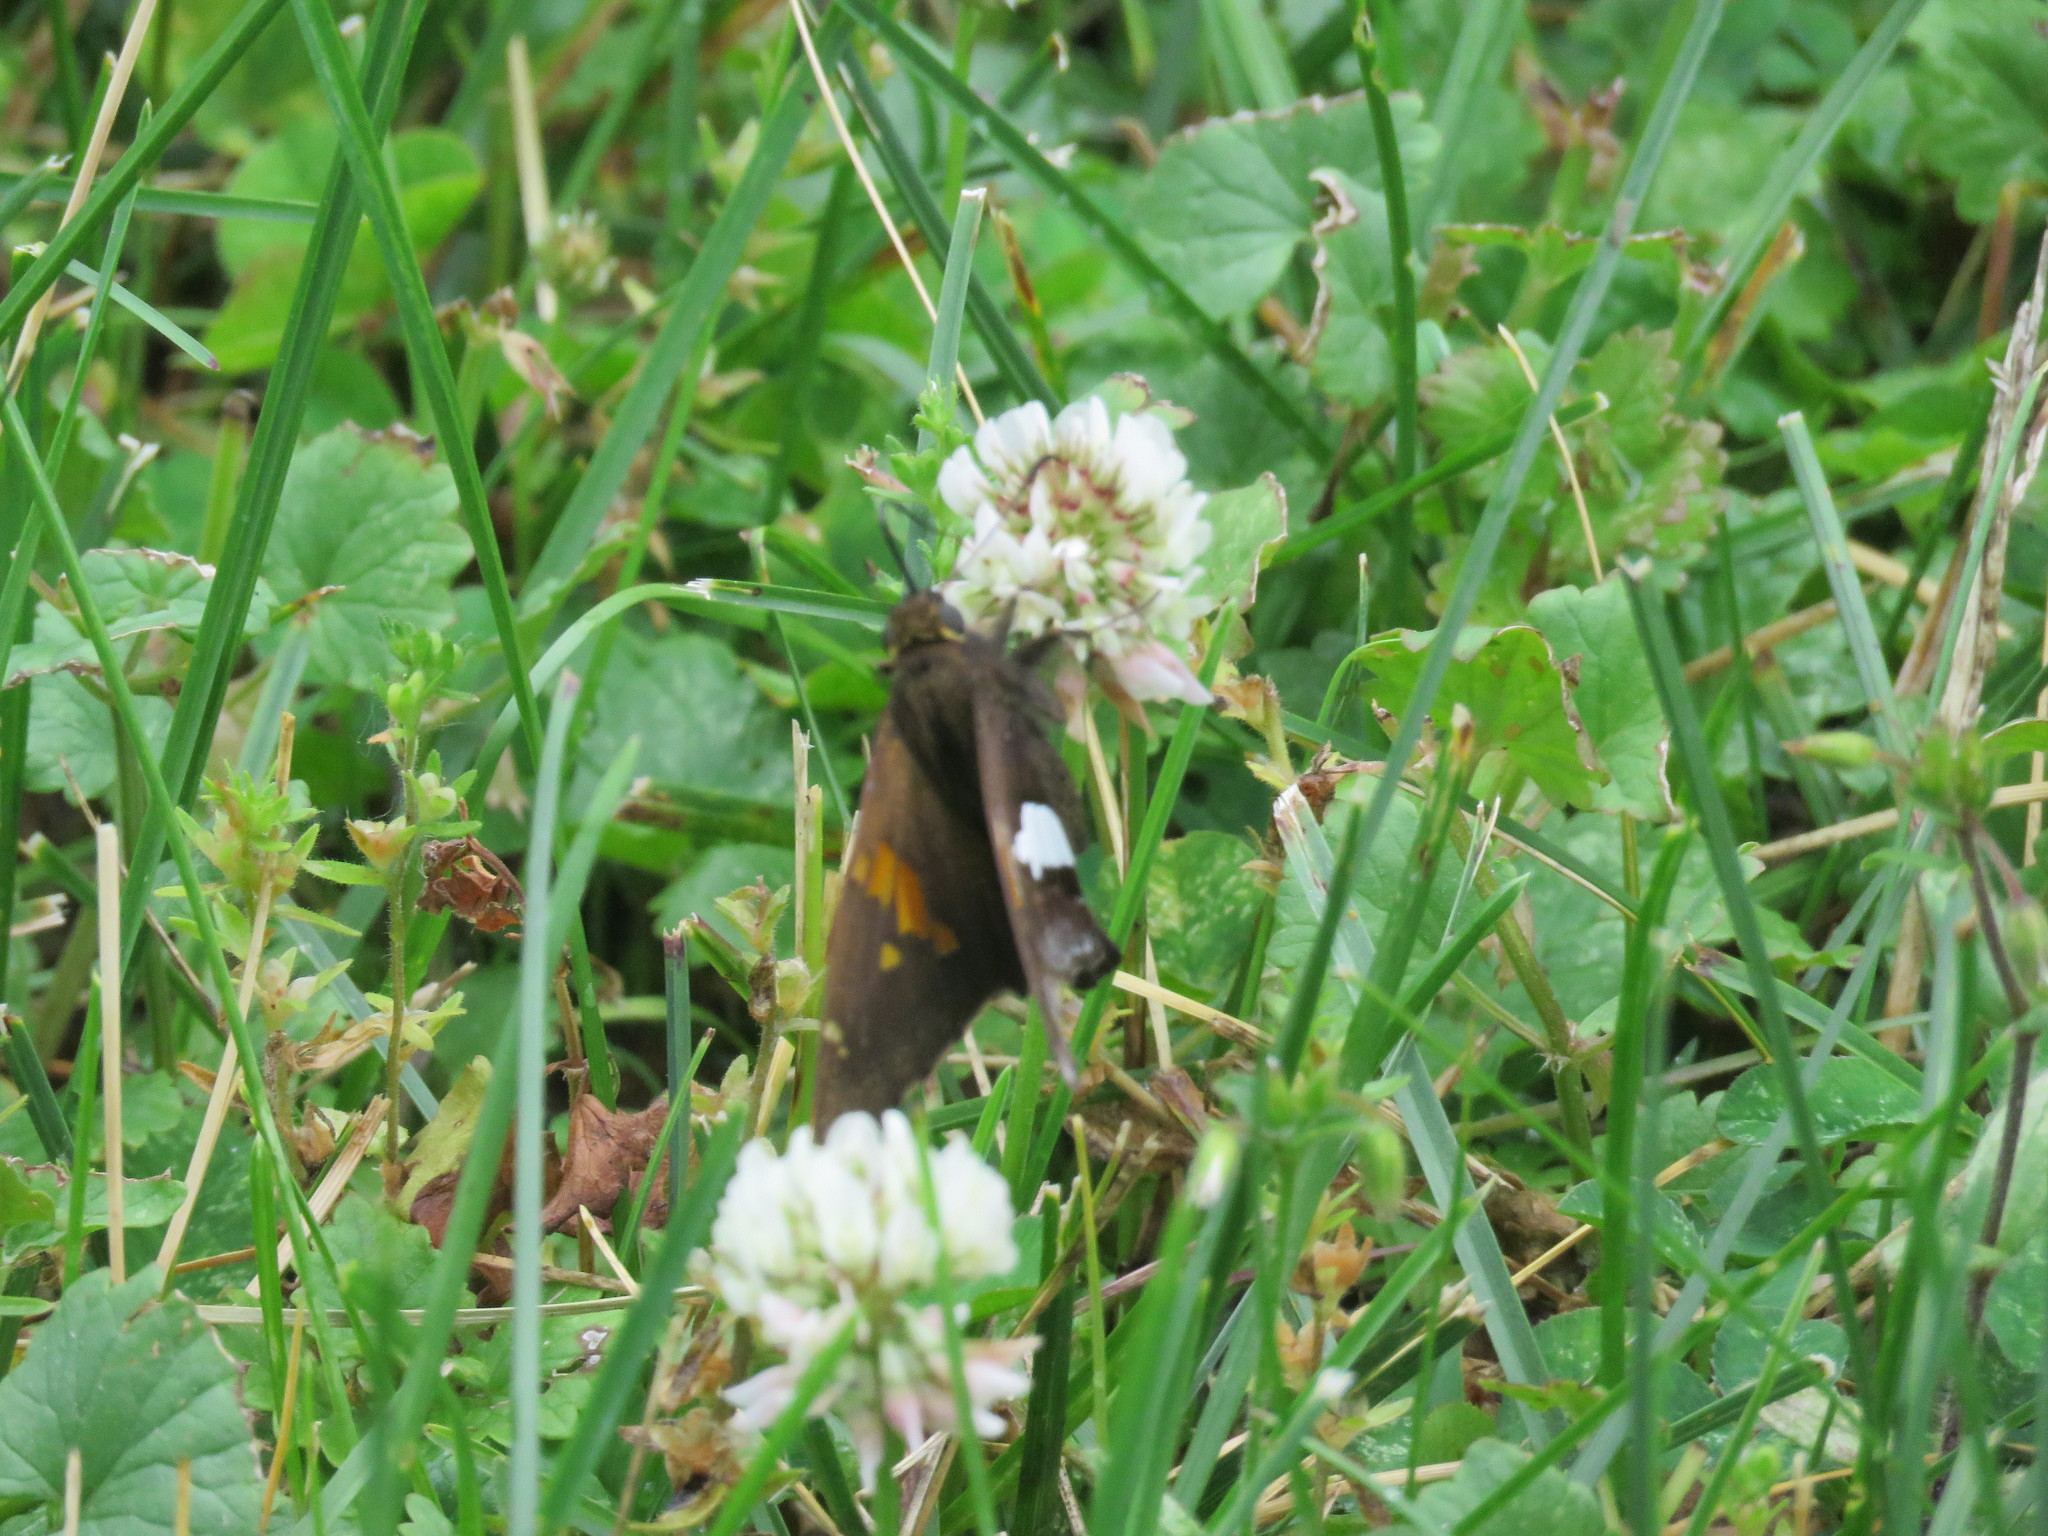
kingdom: Animalia
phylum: Arthropoda
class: Insecta
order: Lepidoptera
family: Hesperiidae
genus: Epargyreus
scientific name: Epargyreus clarus
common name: Silver-spotted skipper
